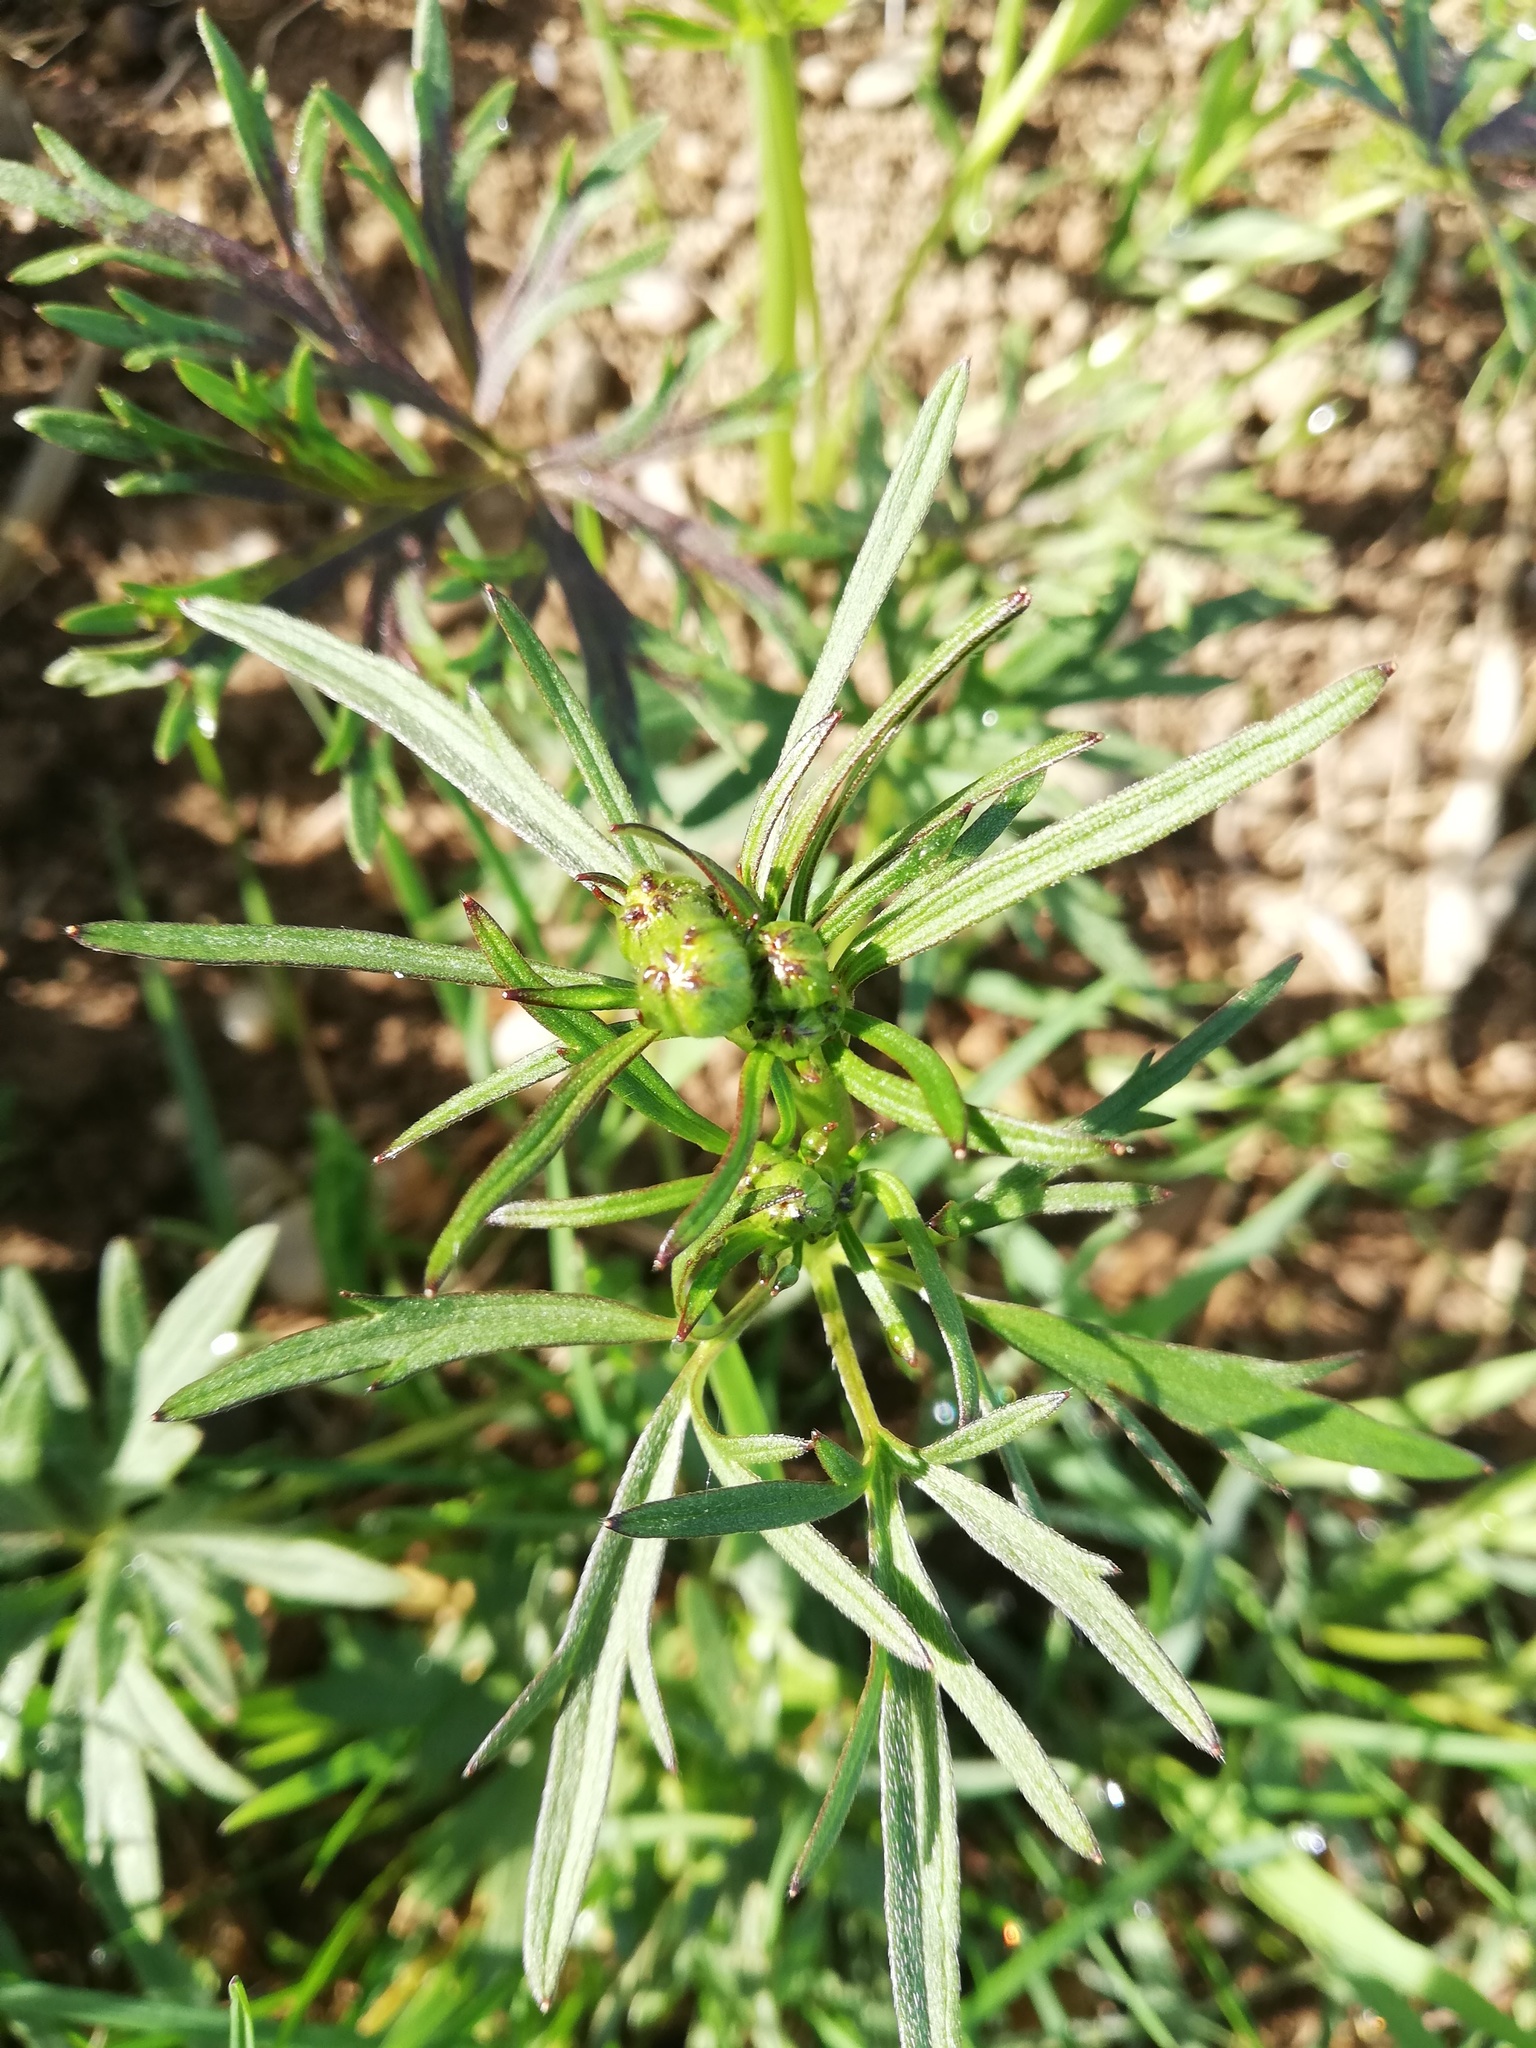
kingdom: Plantae
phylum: Tracheophyta
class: Magnoliopsida
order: Ranunculales
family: Ranunculaceae
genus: Ranunculus
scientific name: Ranunculus acris
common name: Meadow buttercup
